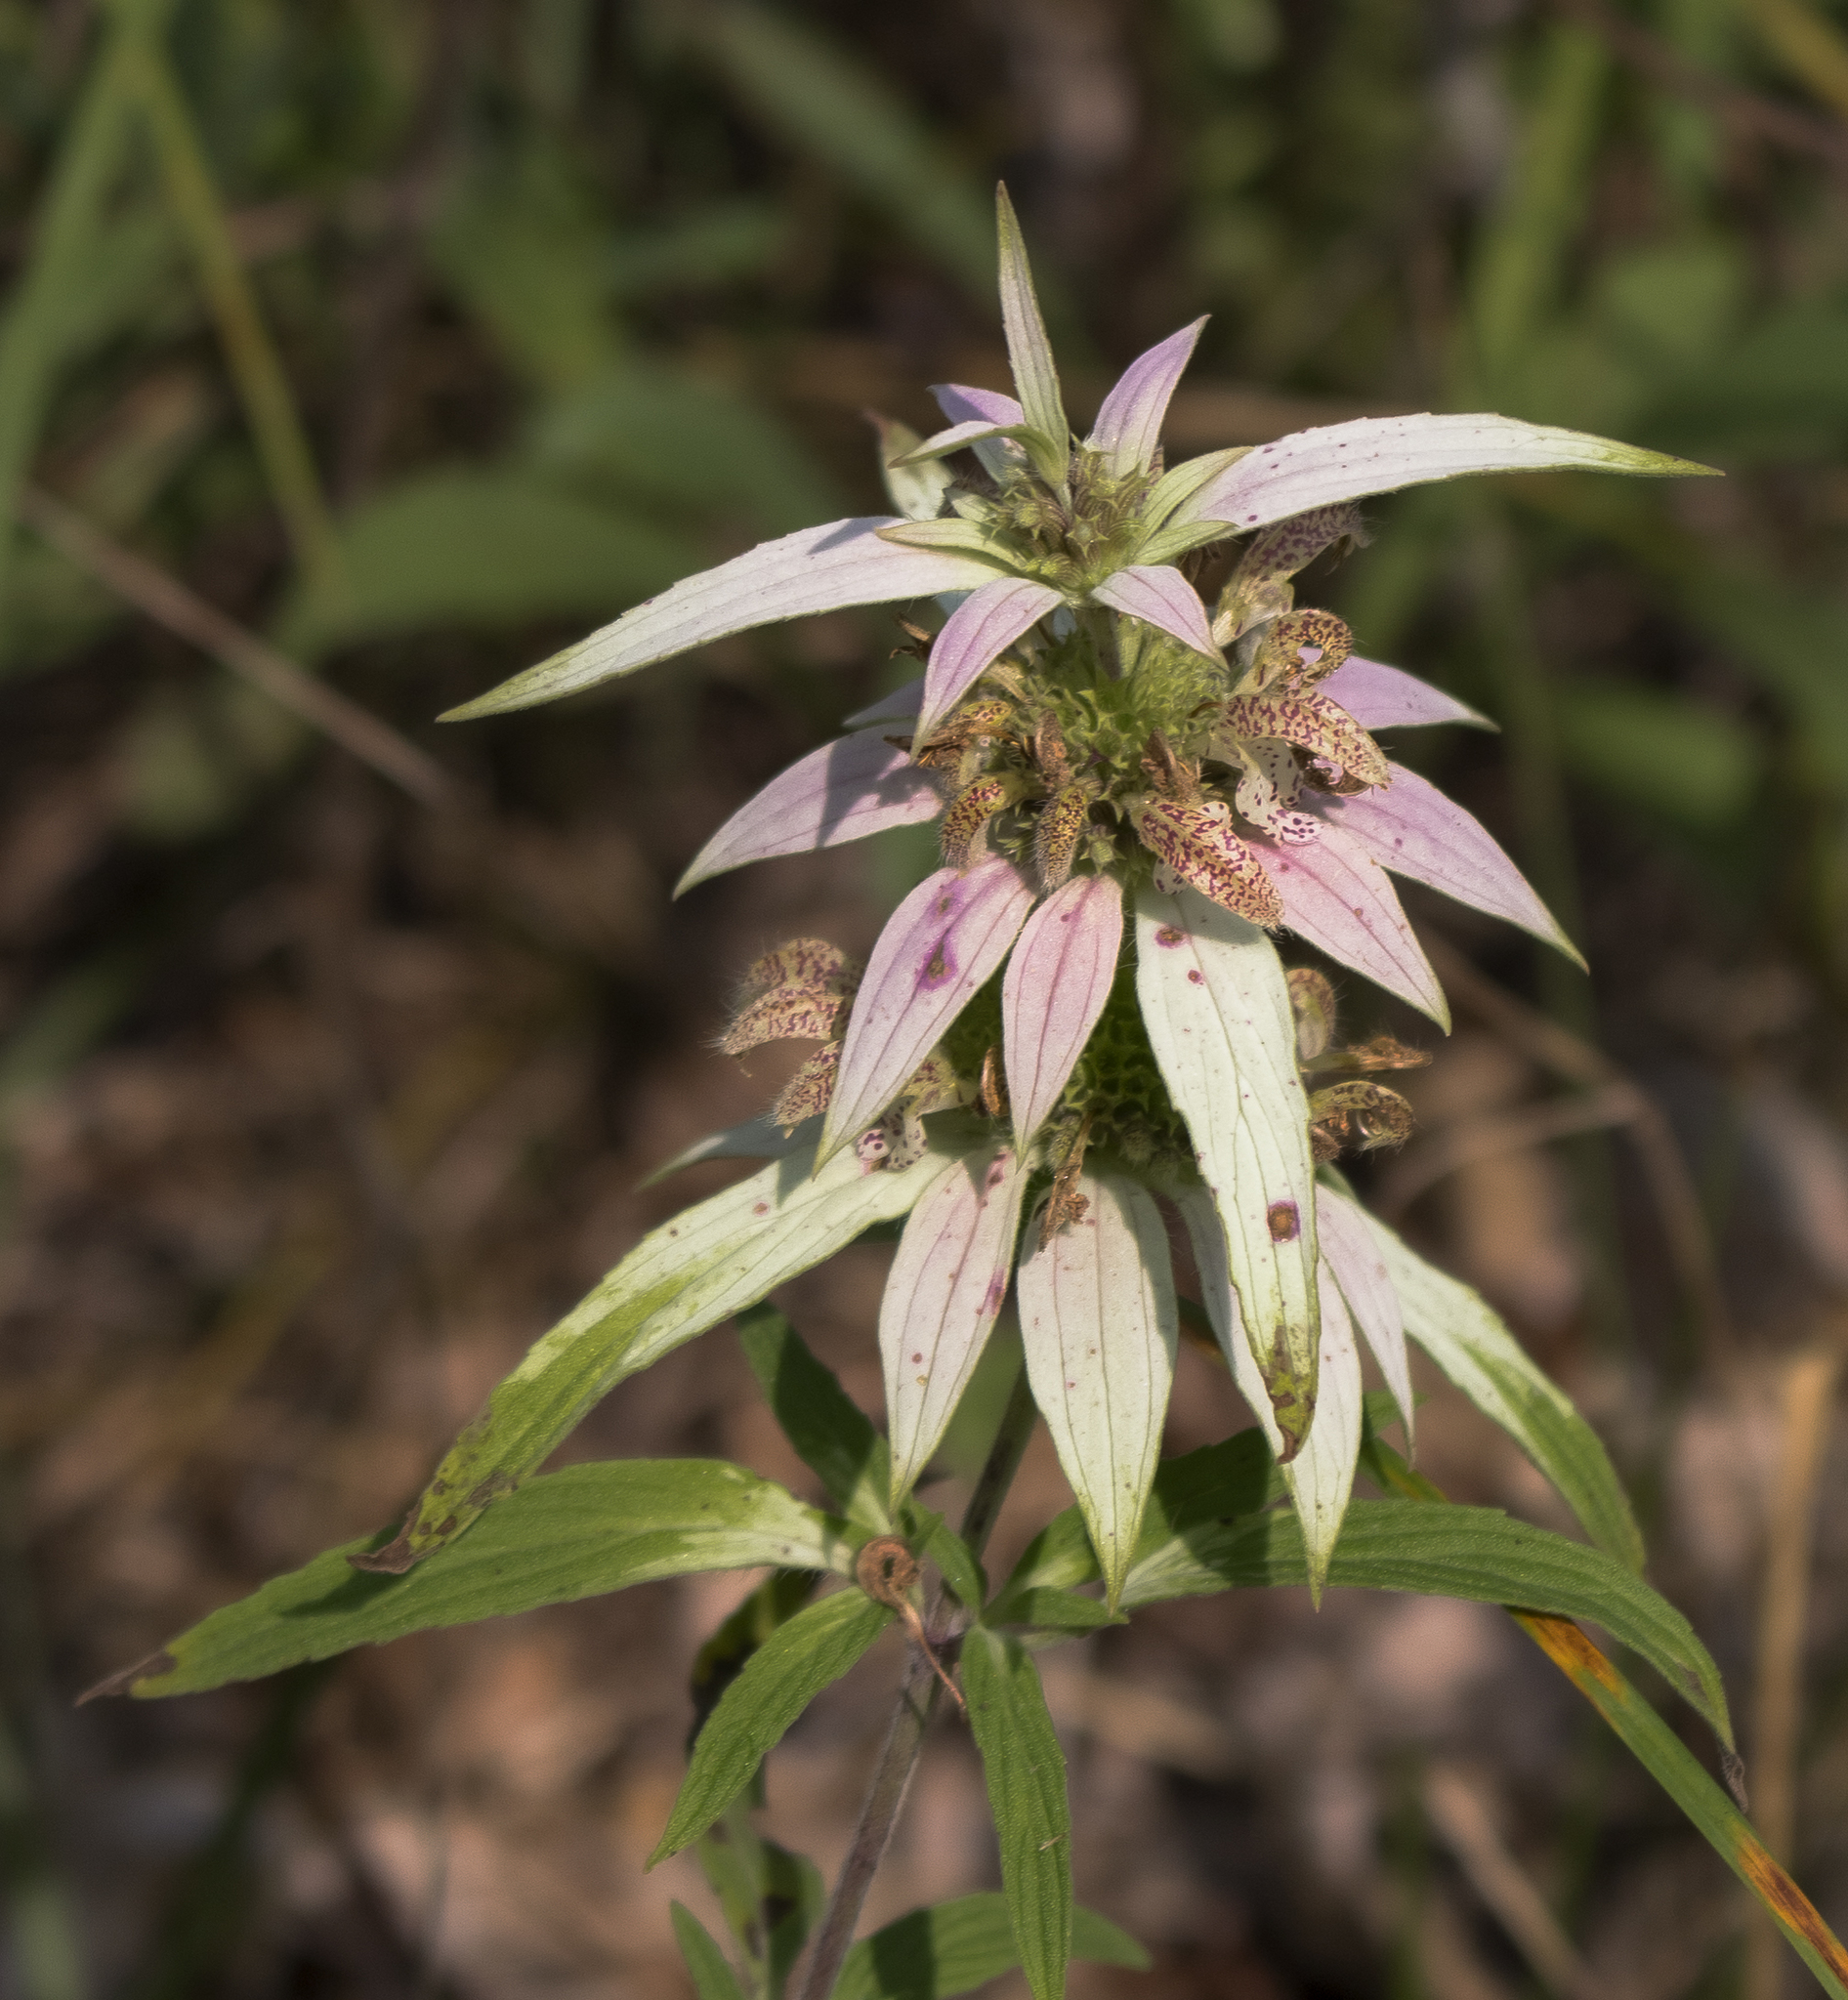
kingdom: Plantae
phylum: Tracheophyta
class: Magnoliopsida
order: Lamiales
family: Lamiaceae
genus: Monarda
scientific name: Monarda punctata
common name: Dotted monarda
